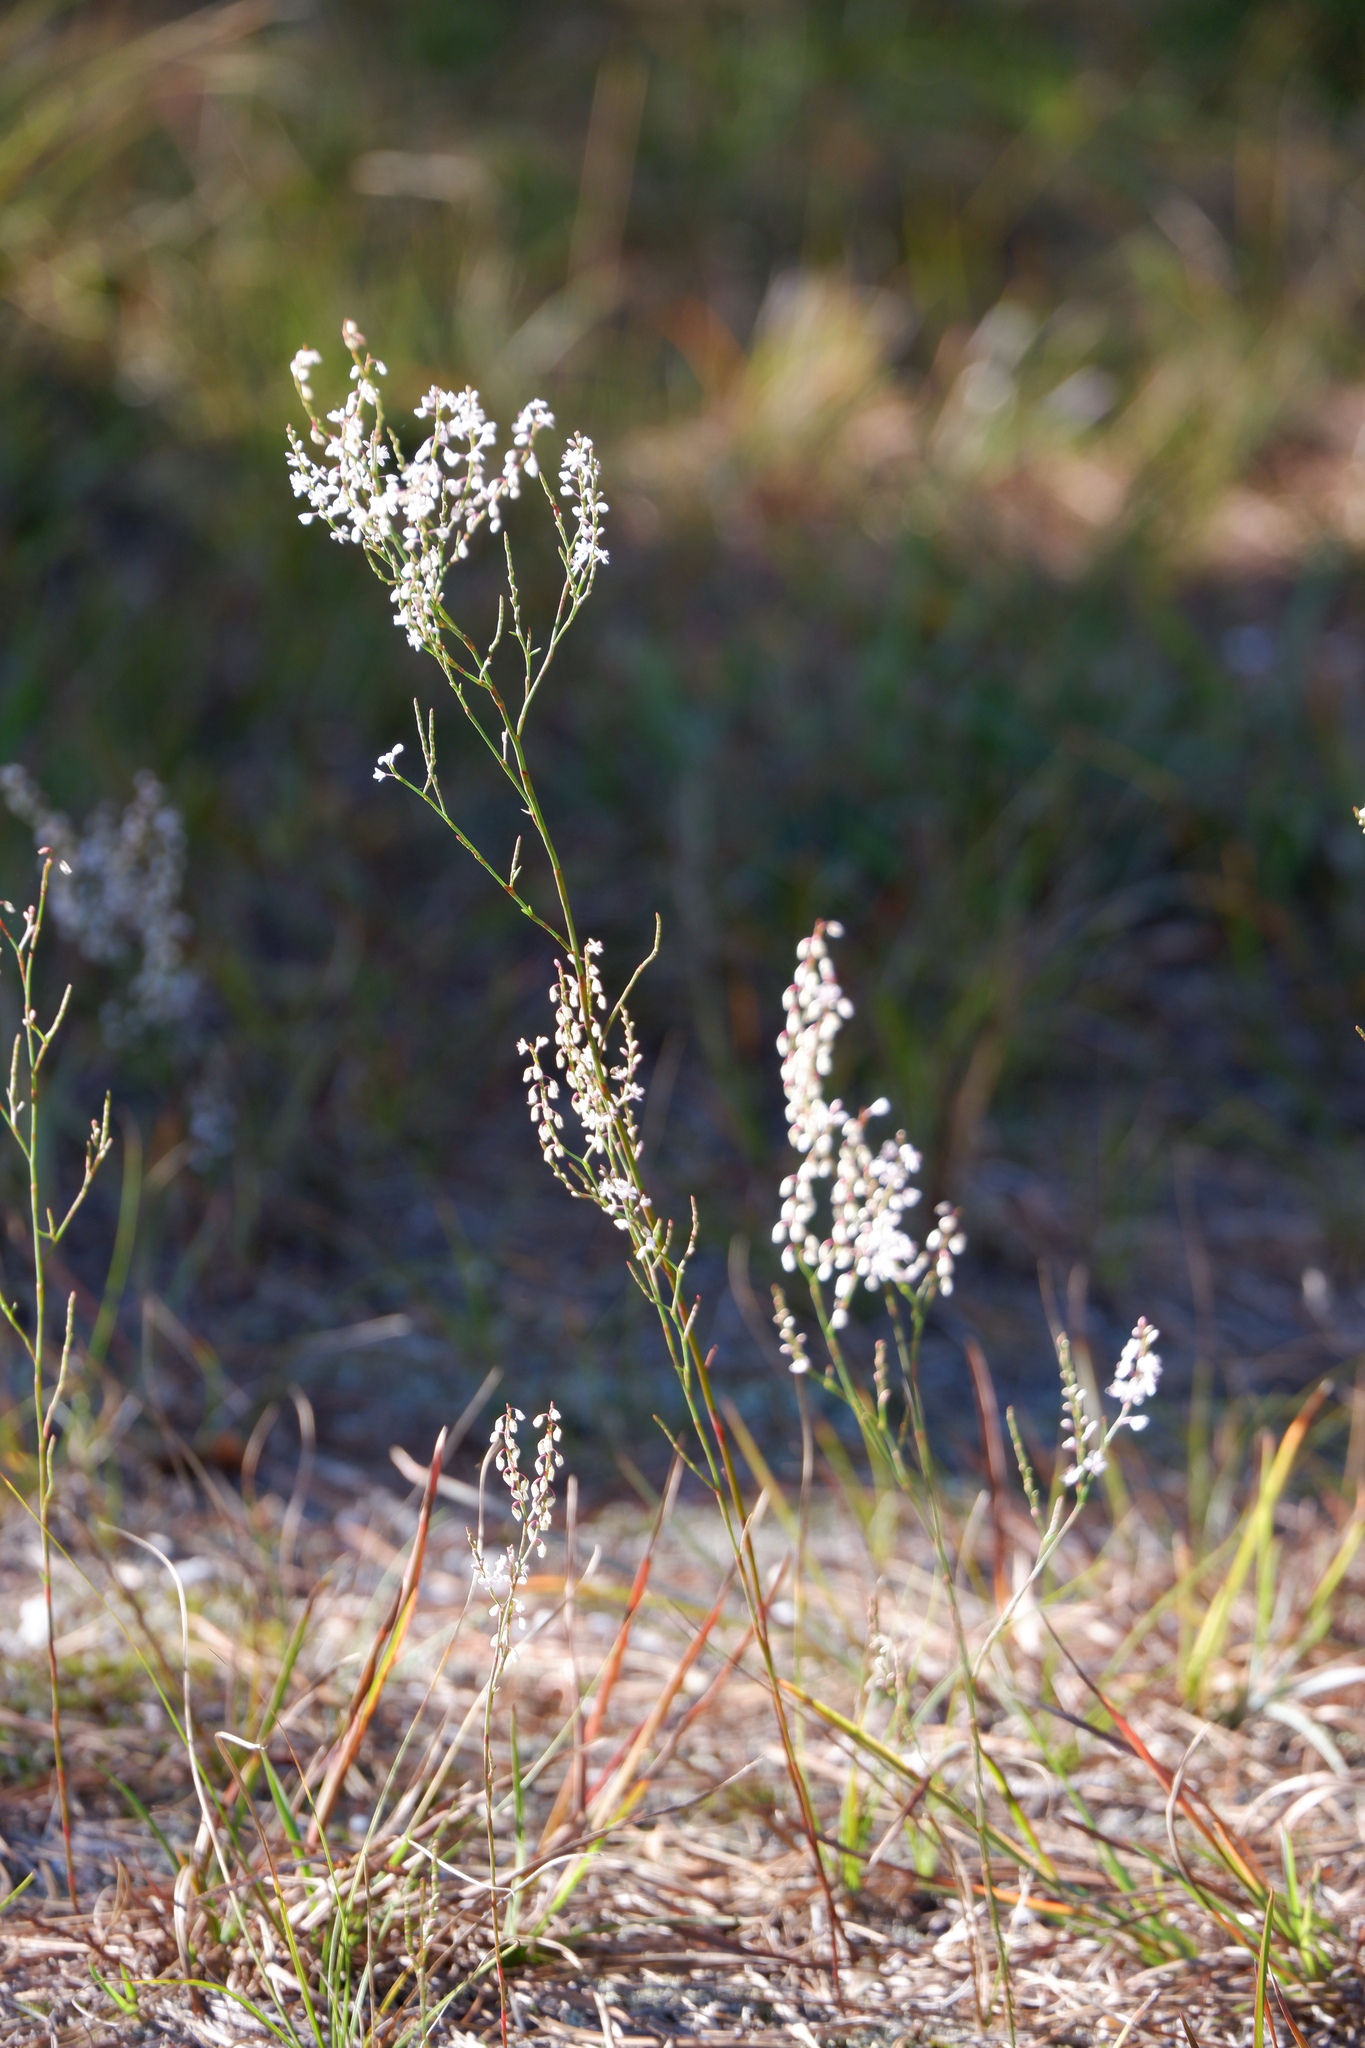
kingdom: Plantae
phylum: Tracheophyta
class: Magnoliopsida
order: Caryophyllales
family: Polygonaceae
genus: Polygonella
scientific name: Polygonella articulata
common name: Coastal jointweed
